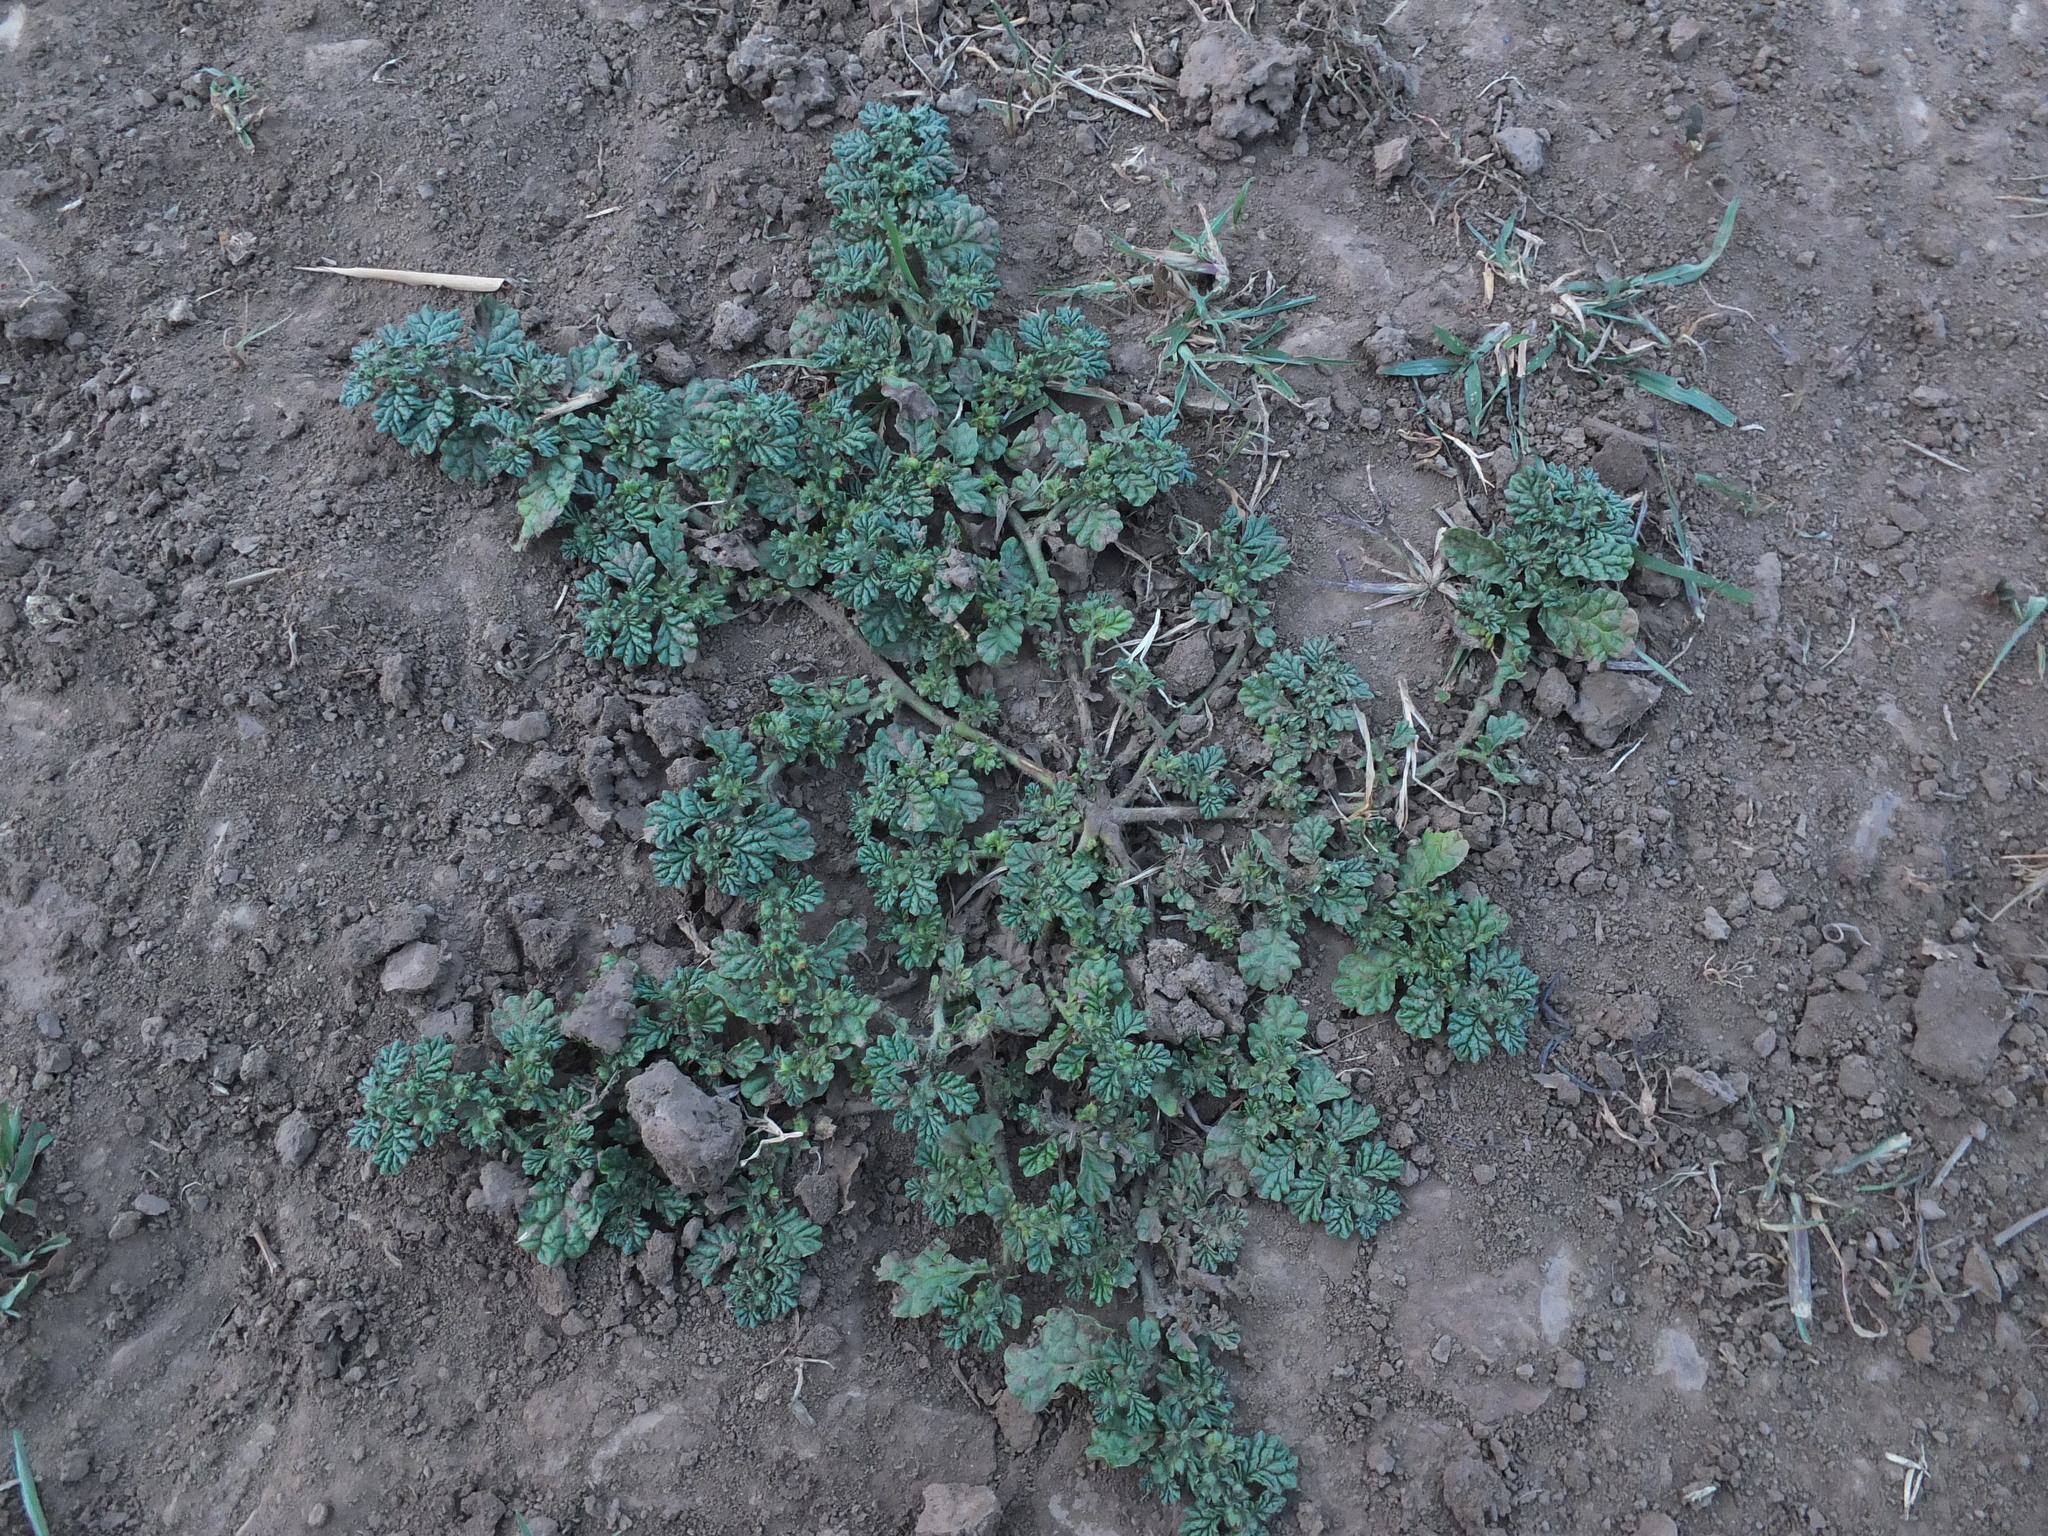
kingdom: Plantae
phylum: Tracheophyta
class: Magnoliopsida
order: Boraginales
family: Coldeniaceae
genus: Coldenia
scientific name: Coldenia procumbens
